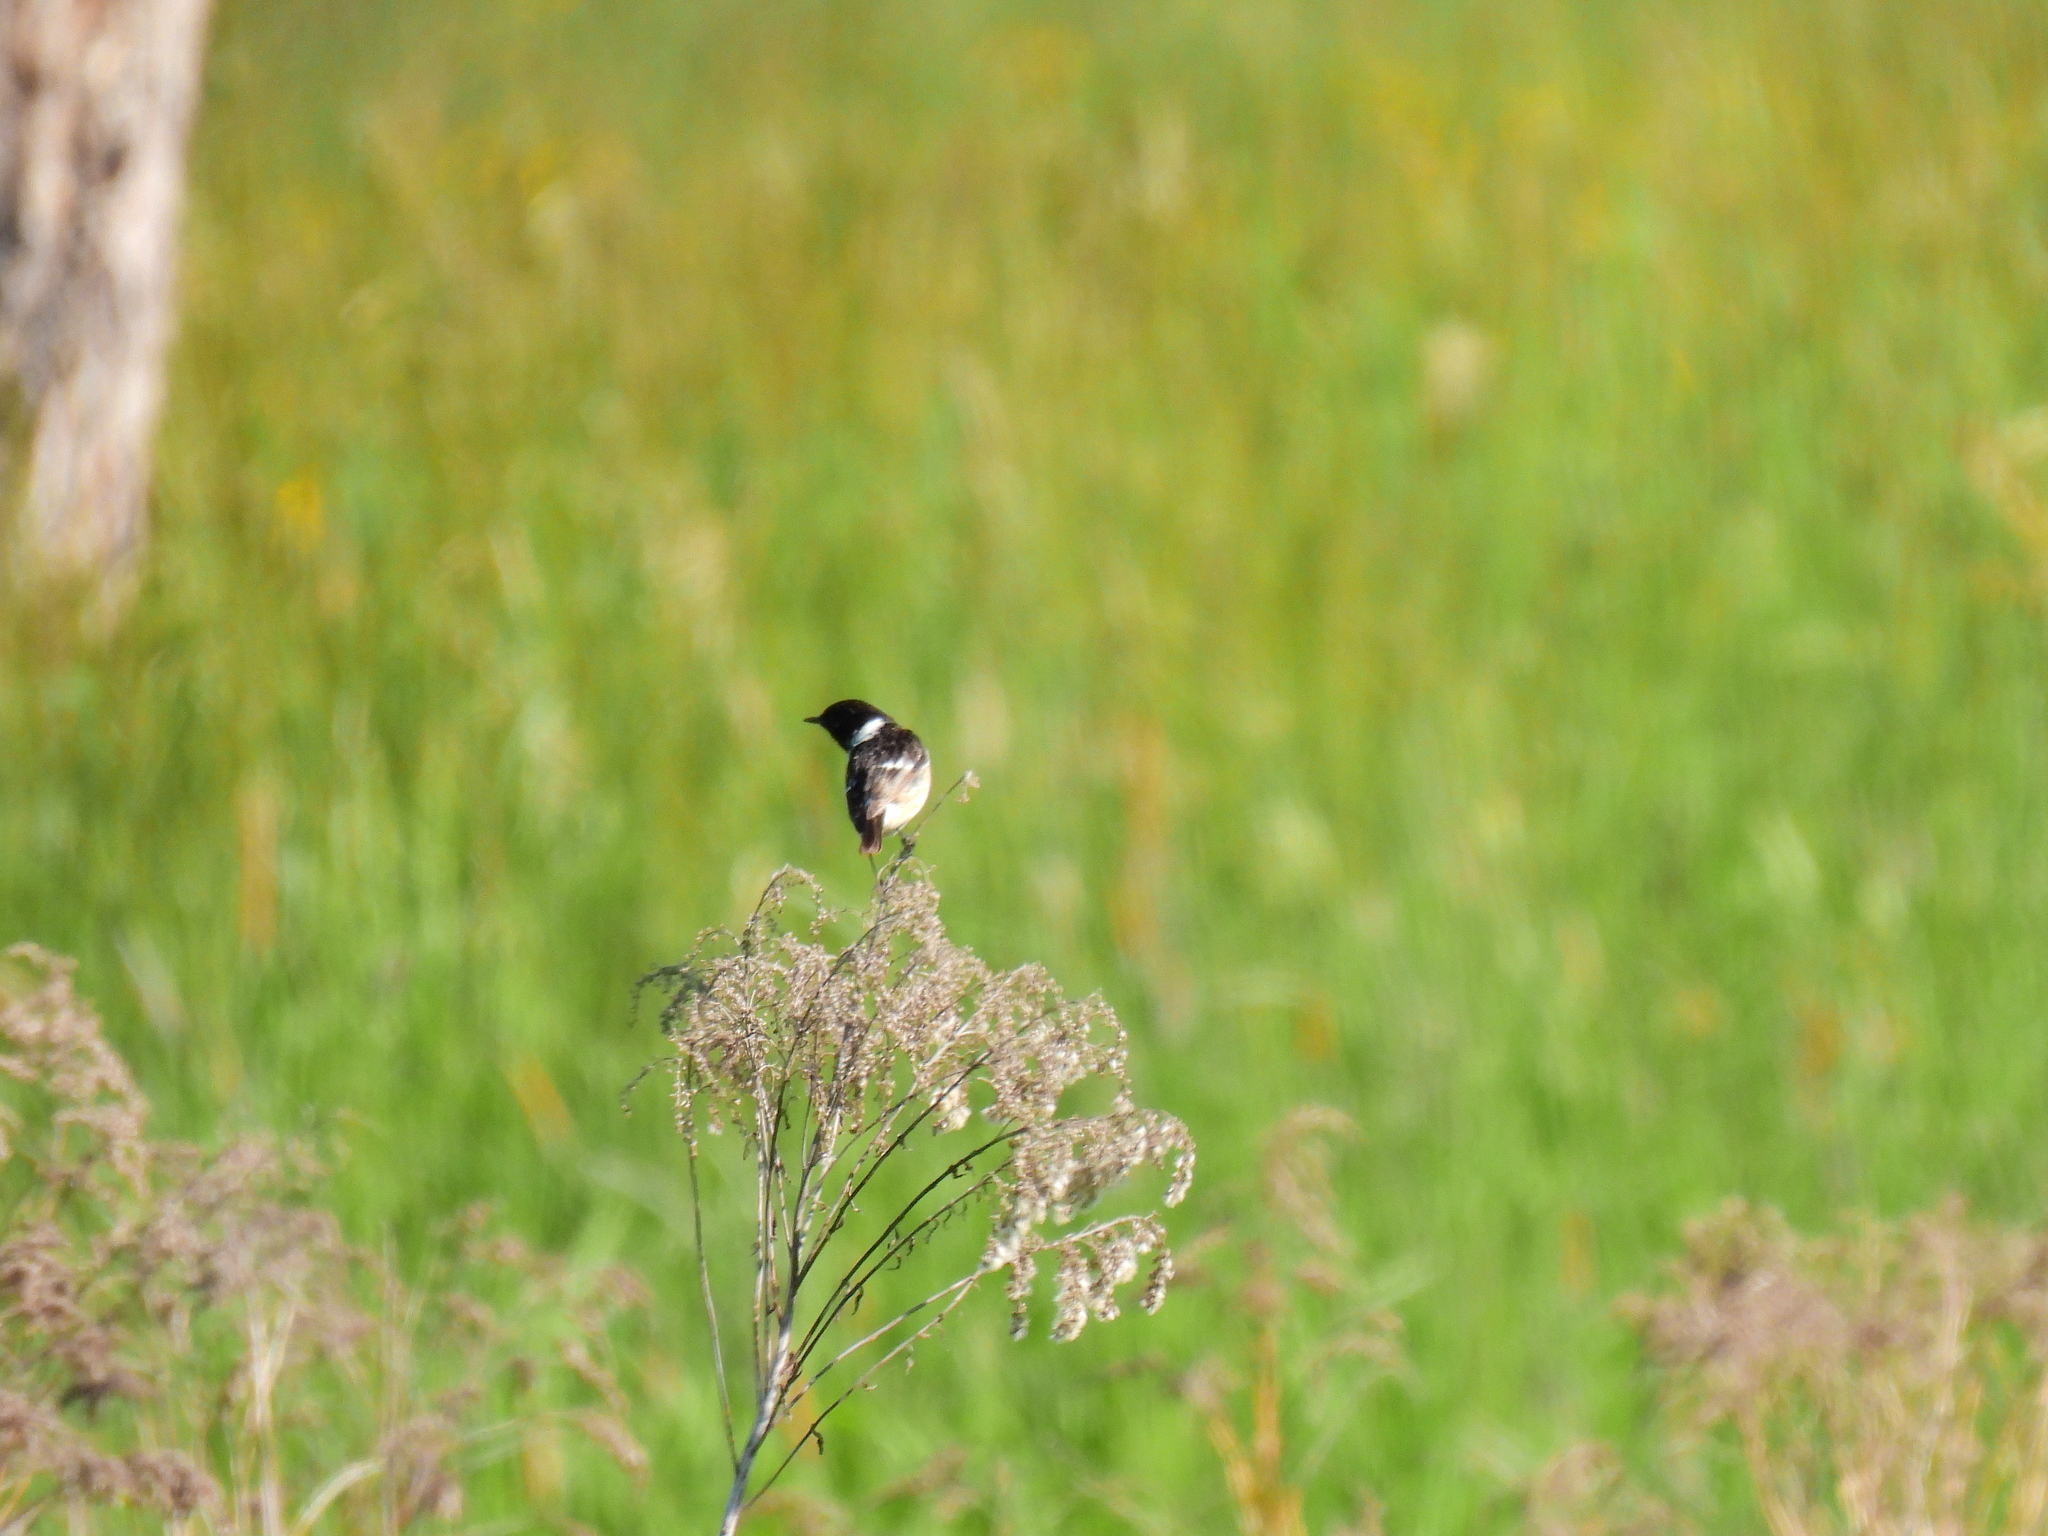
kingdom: Animalia
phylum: Chordata
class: Aves
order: Passeriformes
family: Muscicapidae
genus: Saxicola
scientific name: Saxicola rubicola
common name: European stonechat
